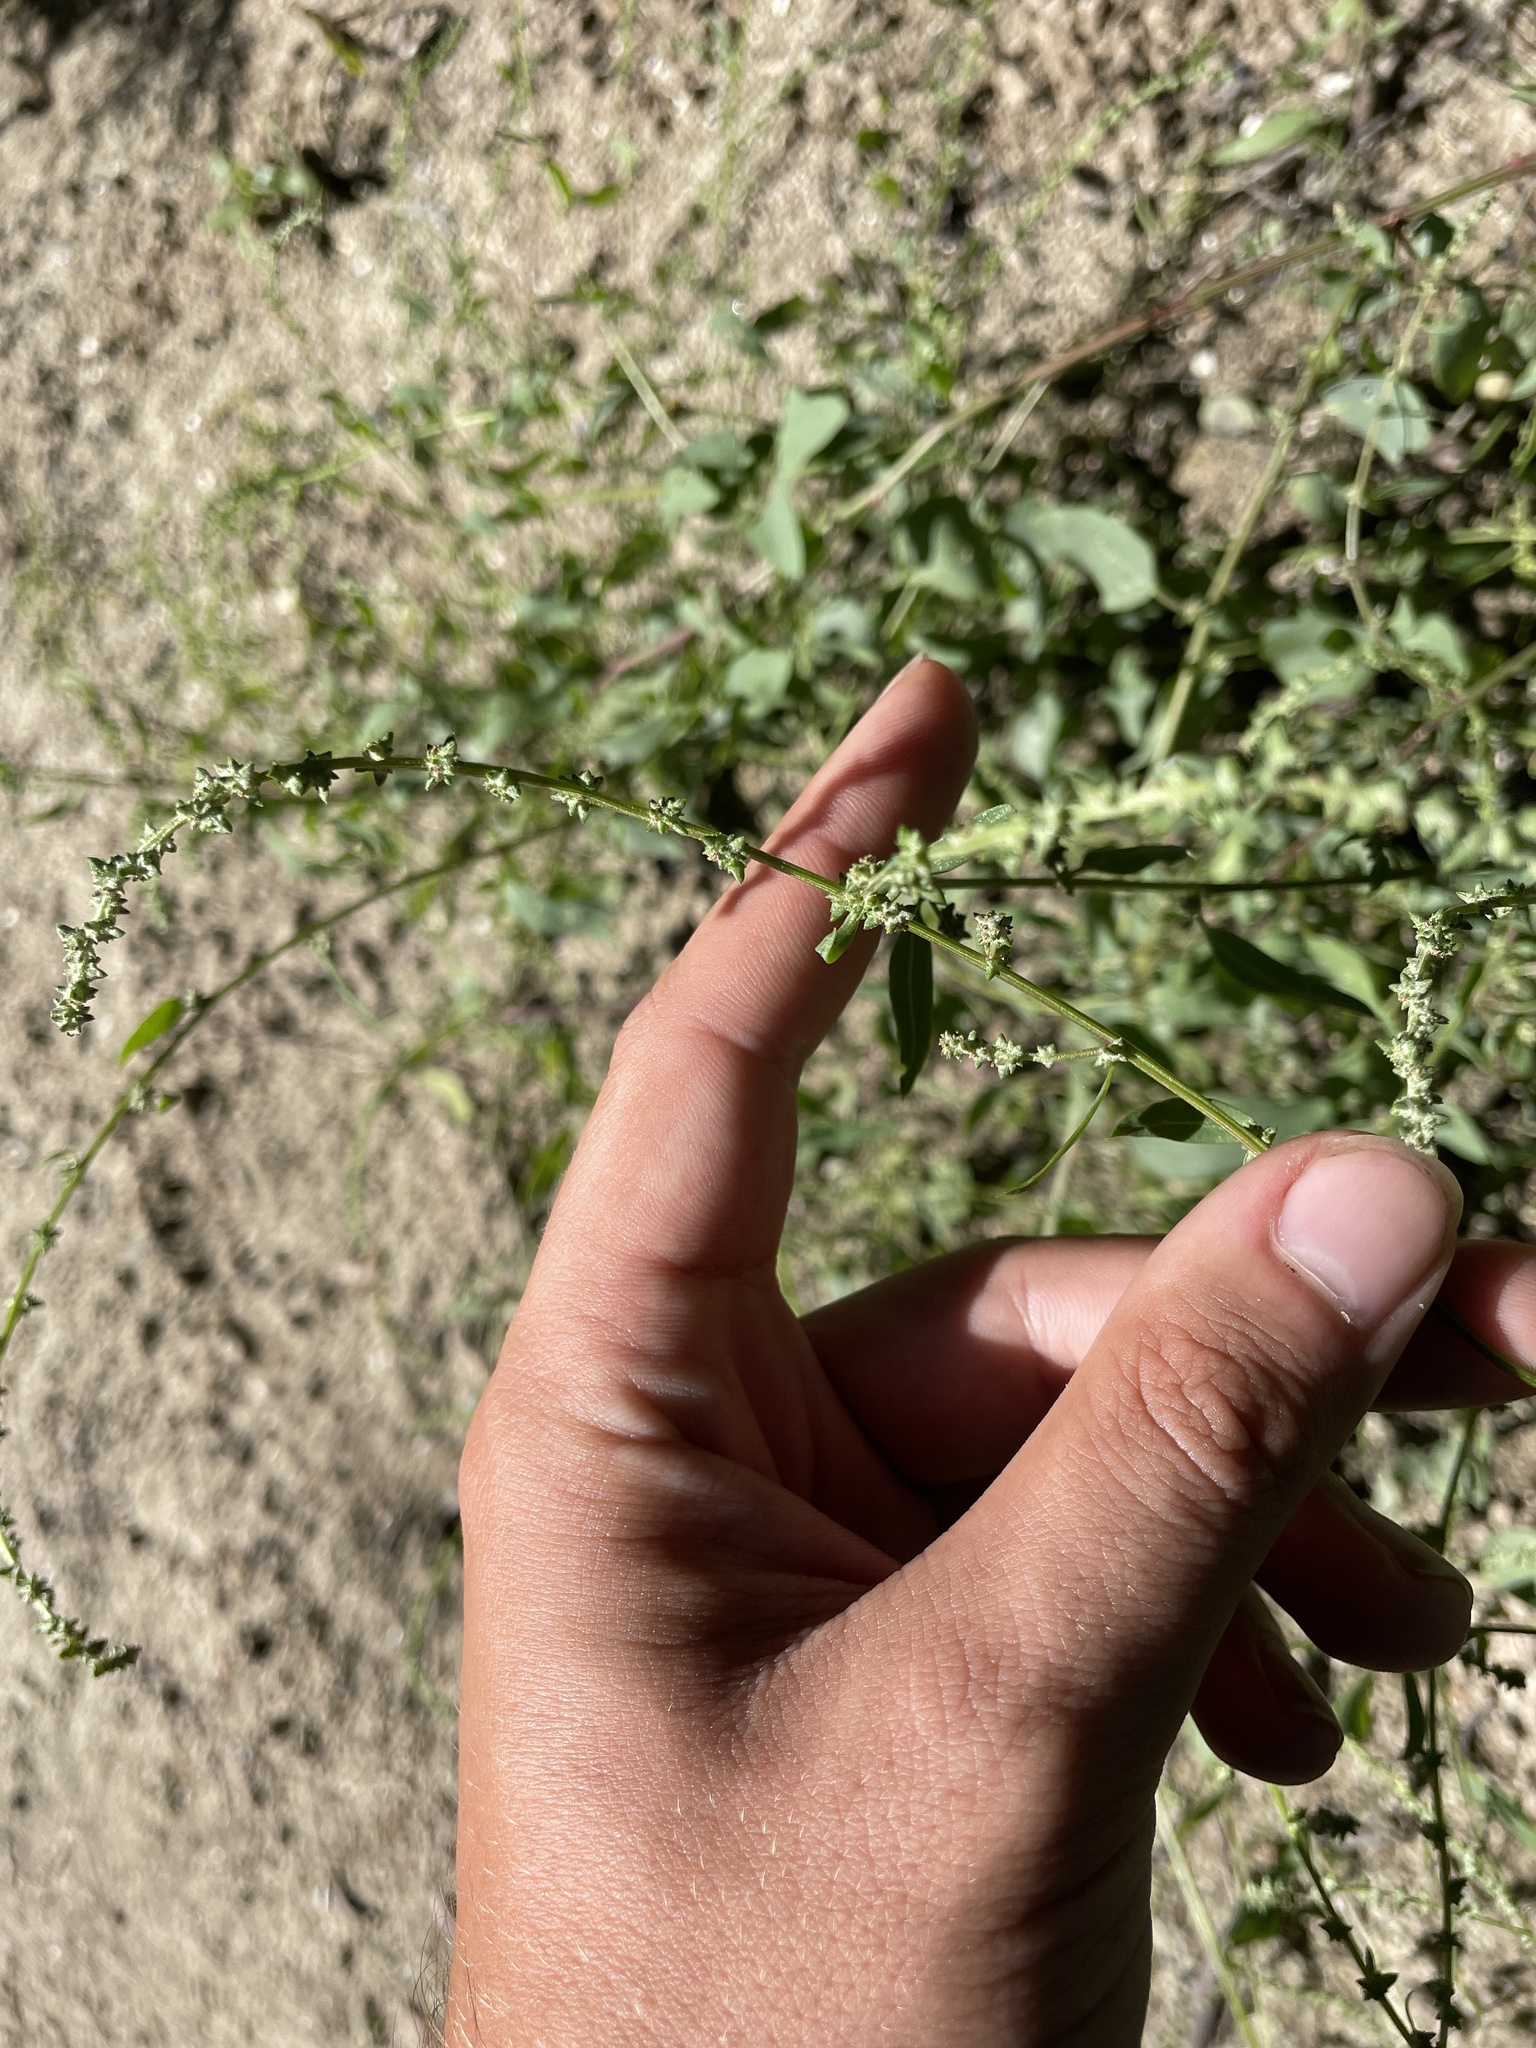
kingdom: Plantae
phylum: Tracheophyta
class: Magnoliopsida
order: Caryophyllales
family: Amaranthaceae
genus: Atriplex
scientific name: Atriplex prostrata
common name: Spear-leaved orache
